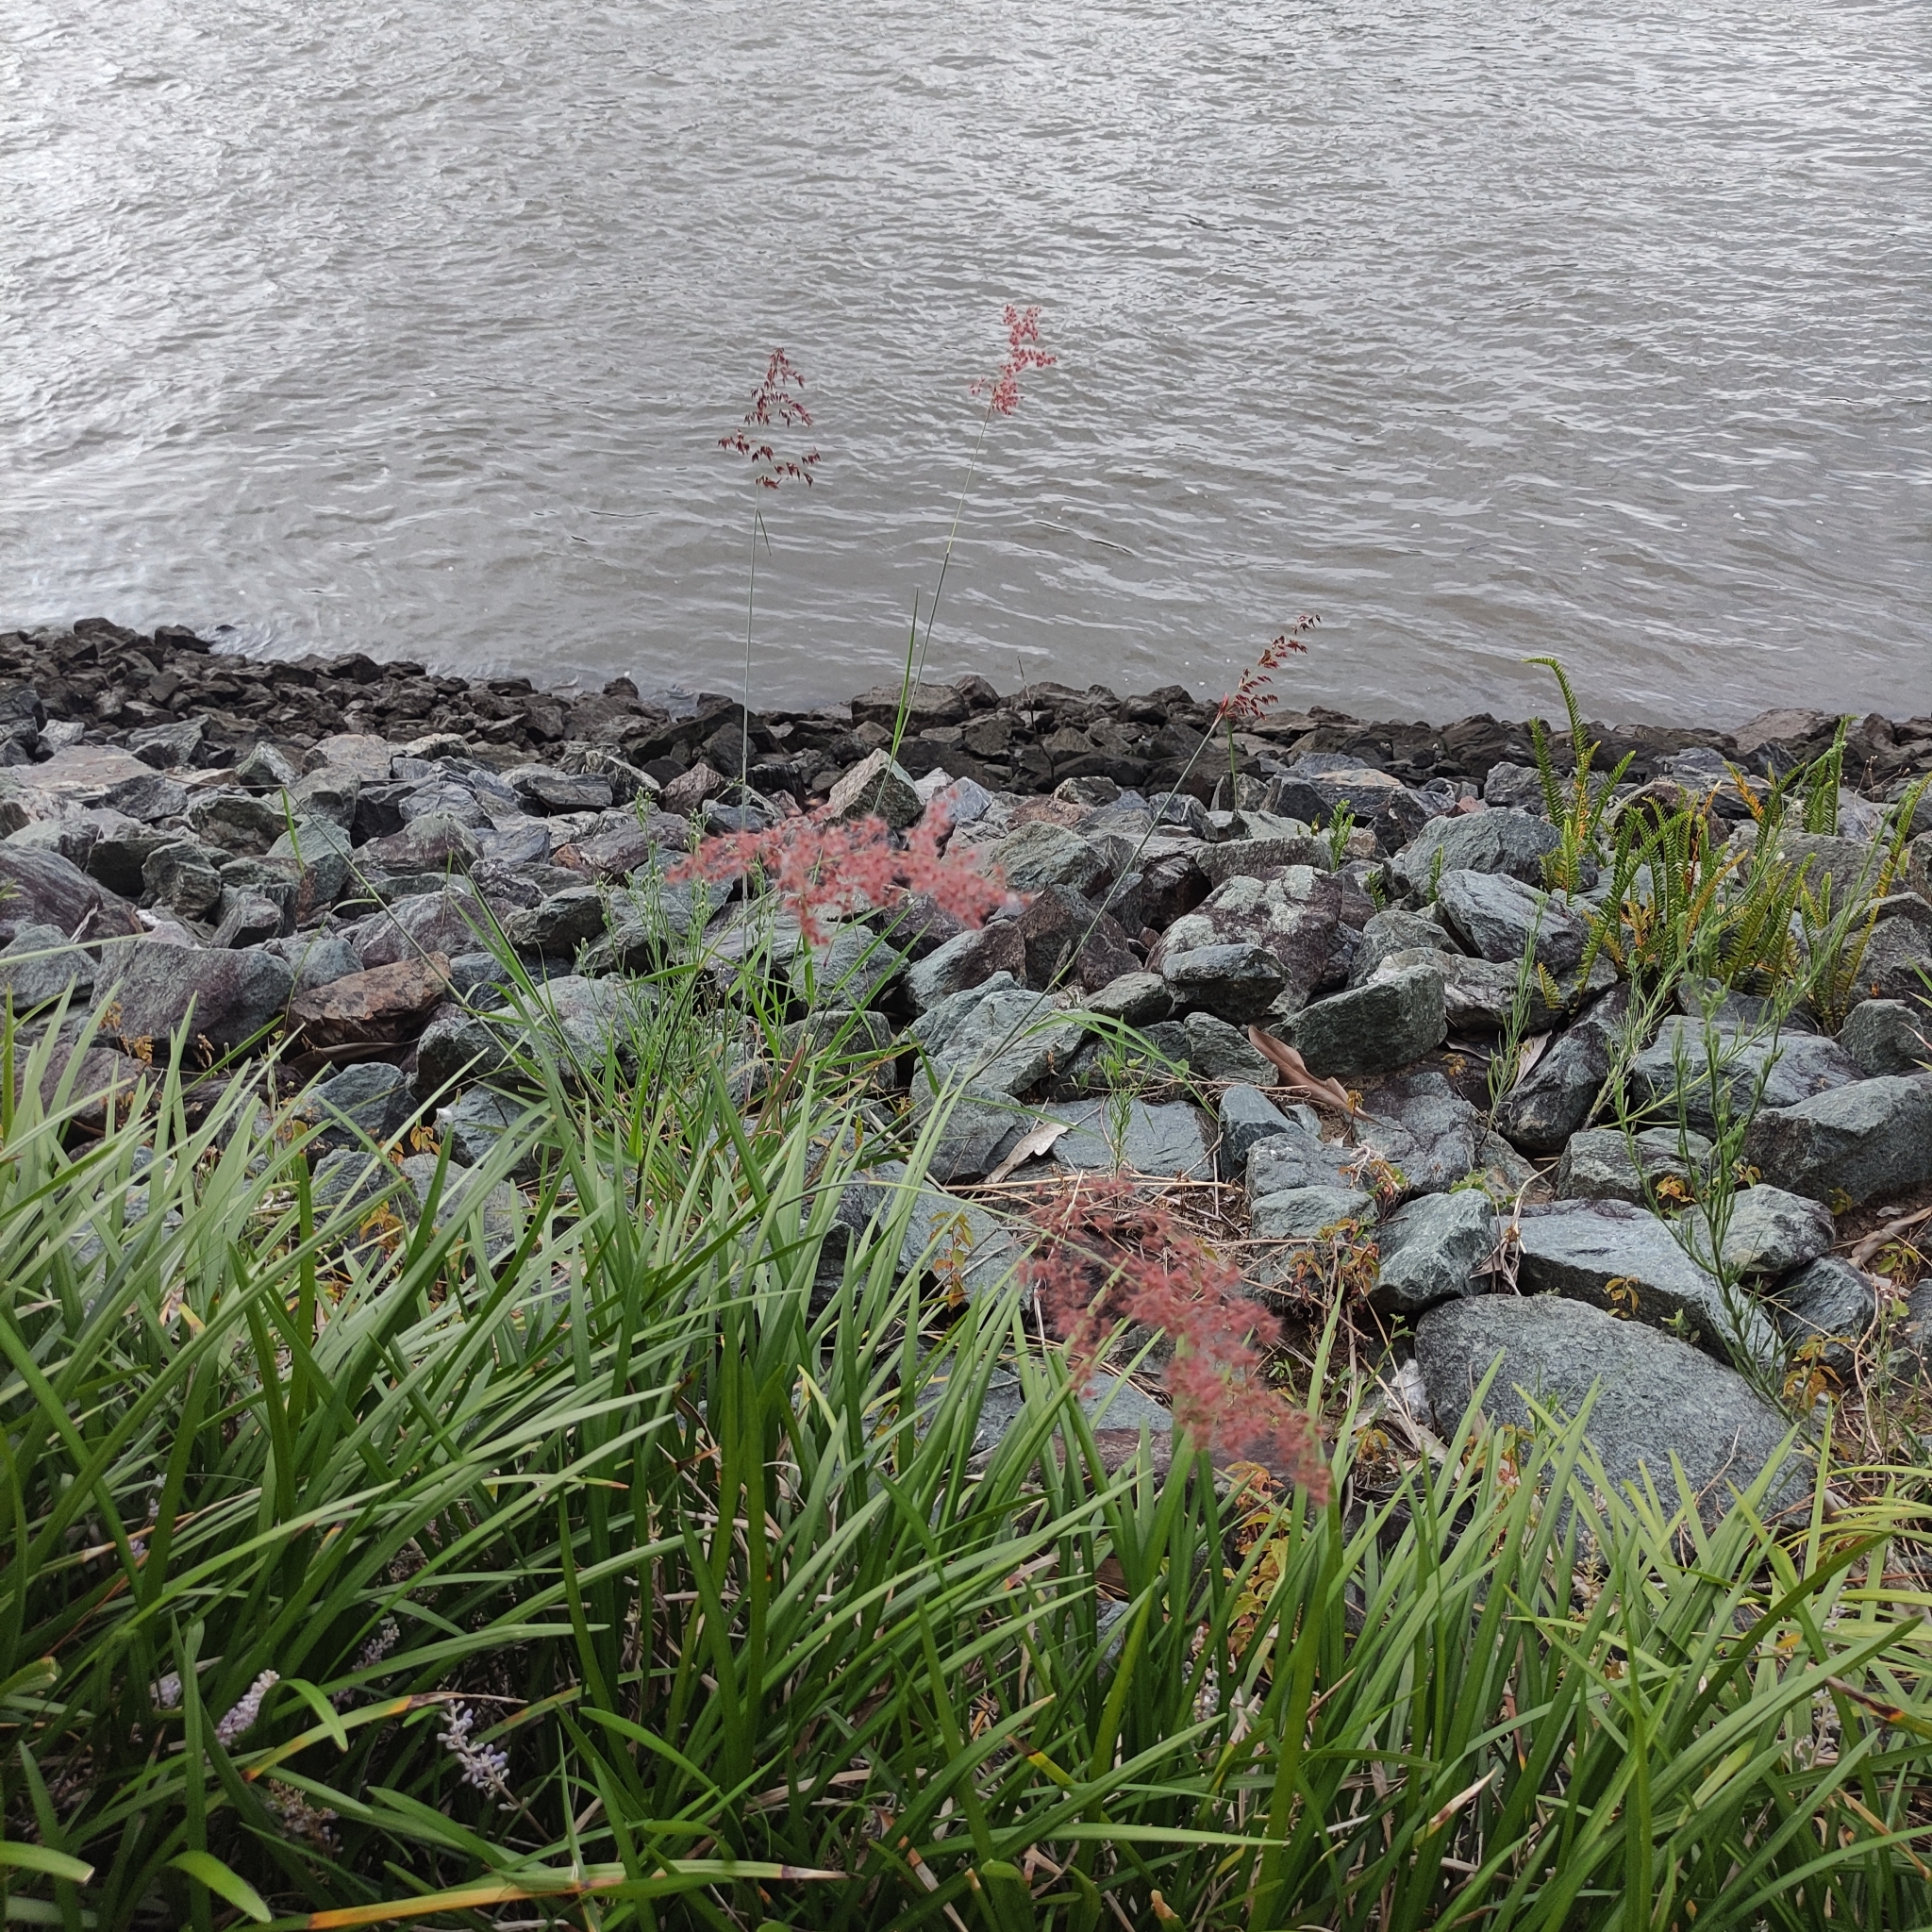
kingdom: Plantae
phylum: Tracheophyta
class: Liliopsida
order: Poales
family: Poaceae
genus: Melinis
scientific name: Melinis repens
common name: Rose natal grass
